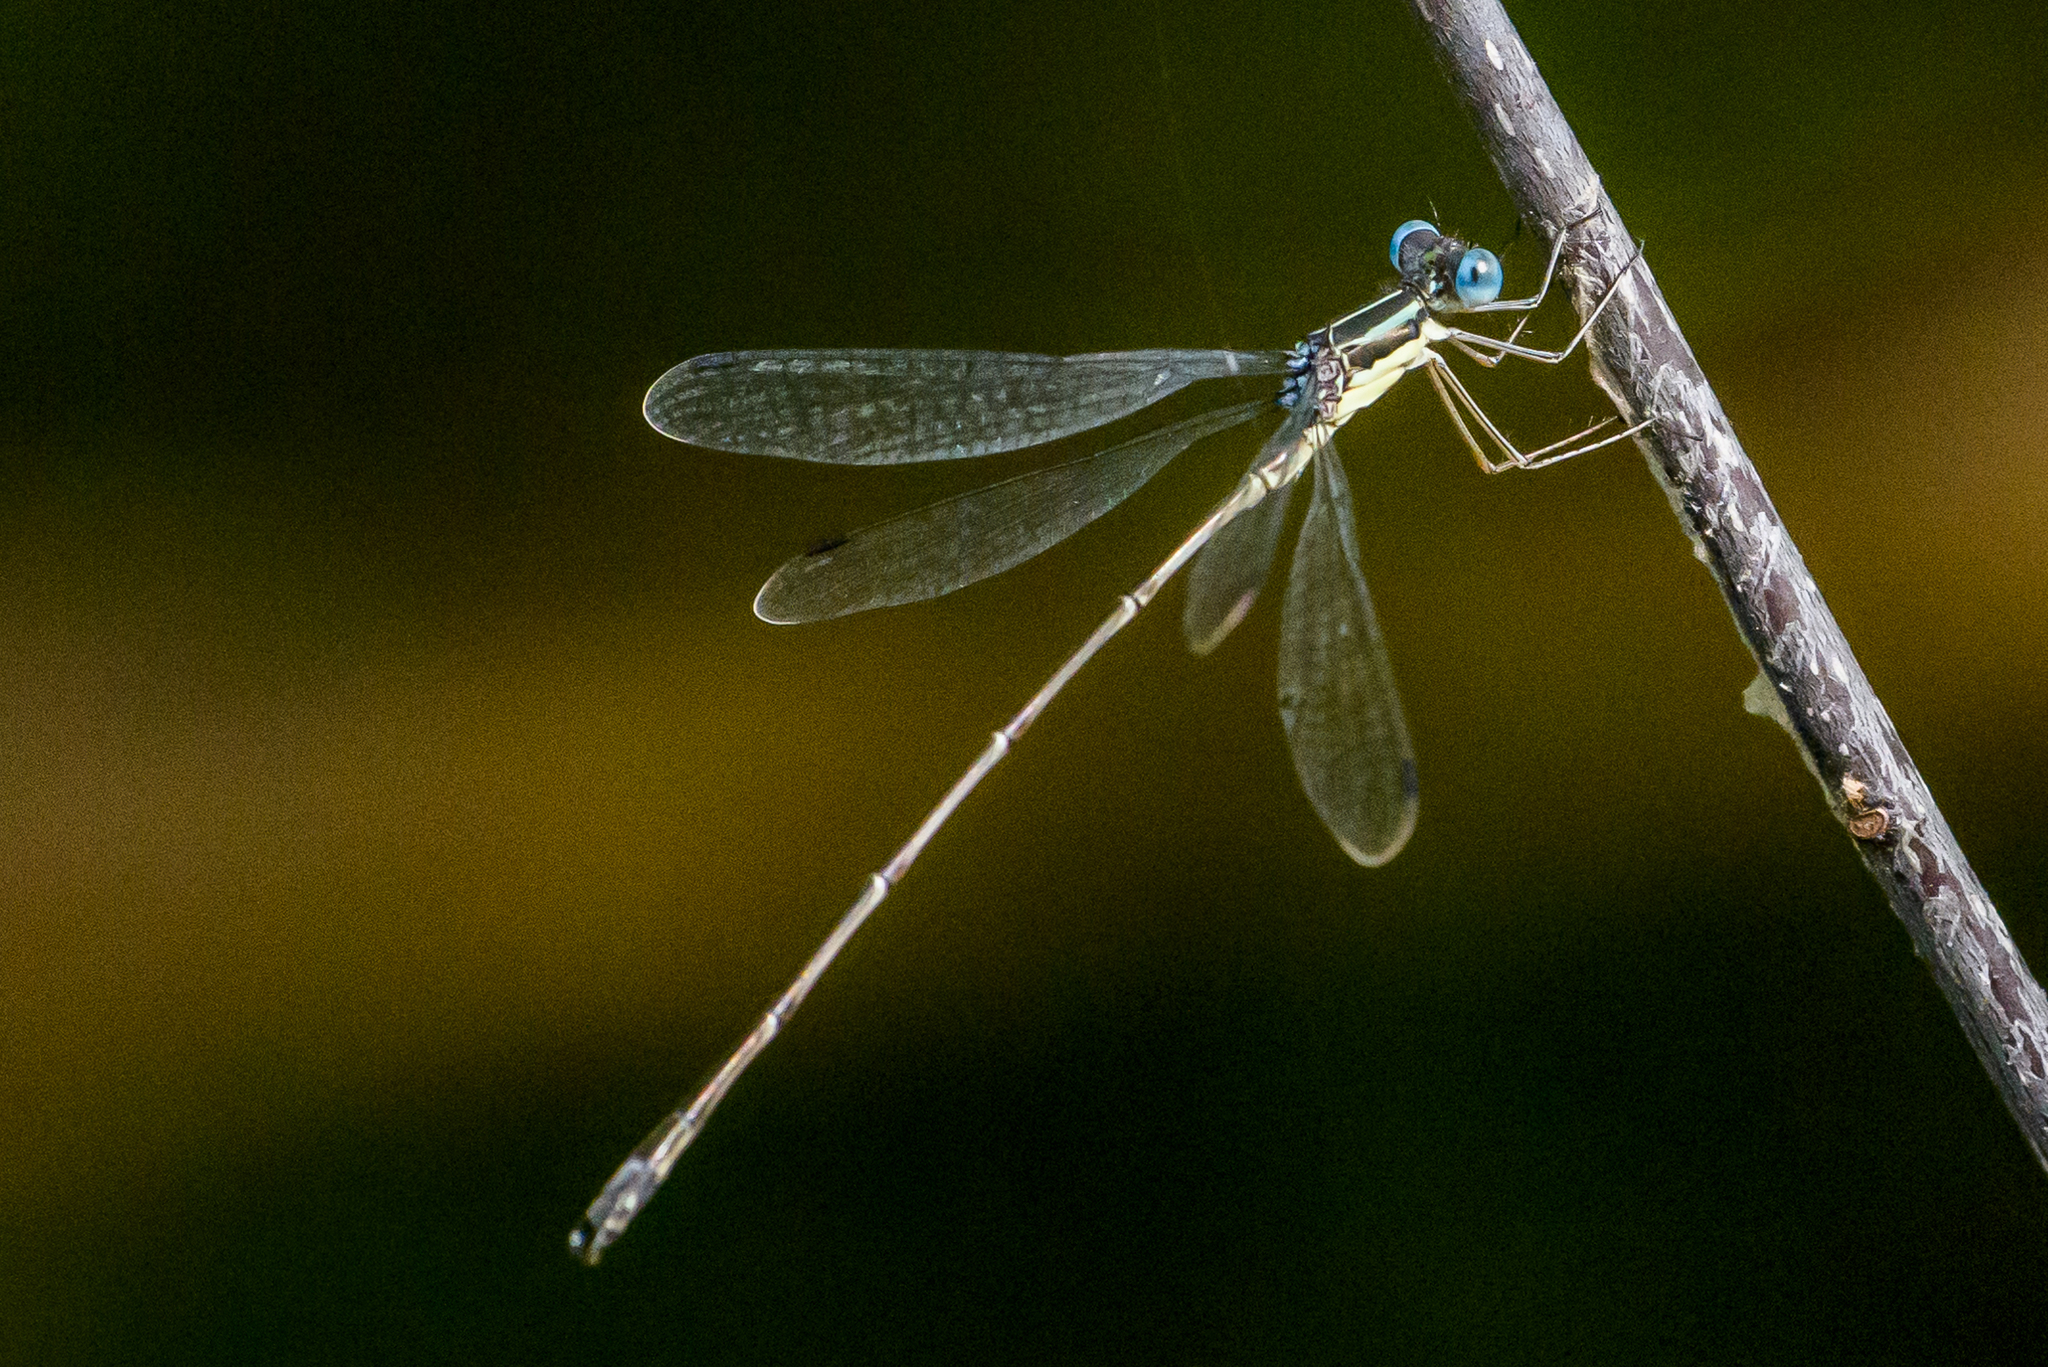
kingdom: Animalia
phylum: Arthropoda
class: Insecta
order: Odonata
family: Lestidae
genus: Lestes
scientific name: Lestes rectangularis
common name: Slender spreadwing
